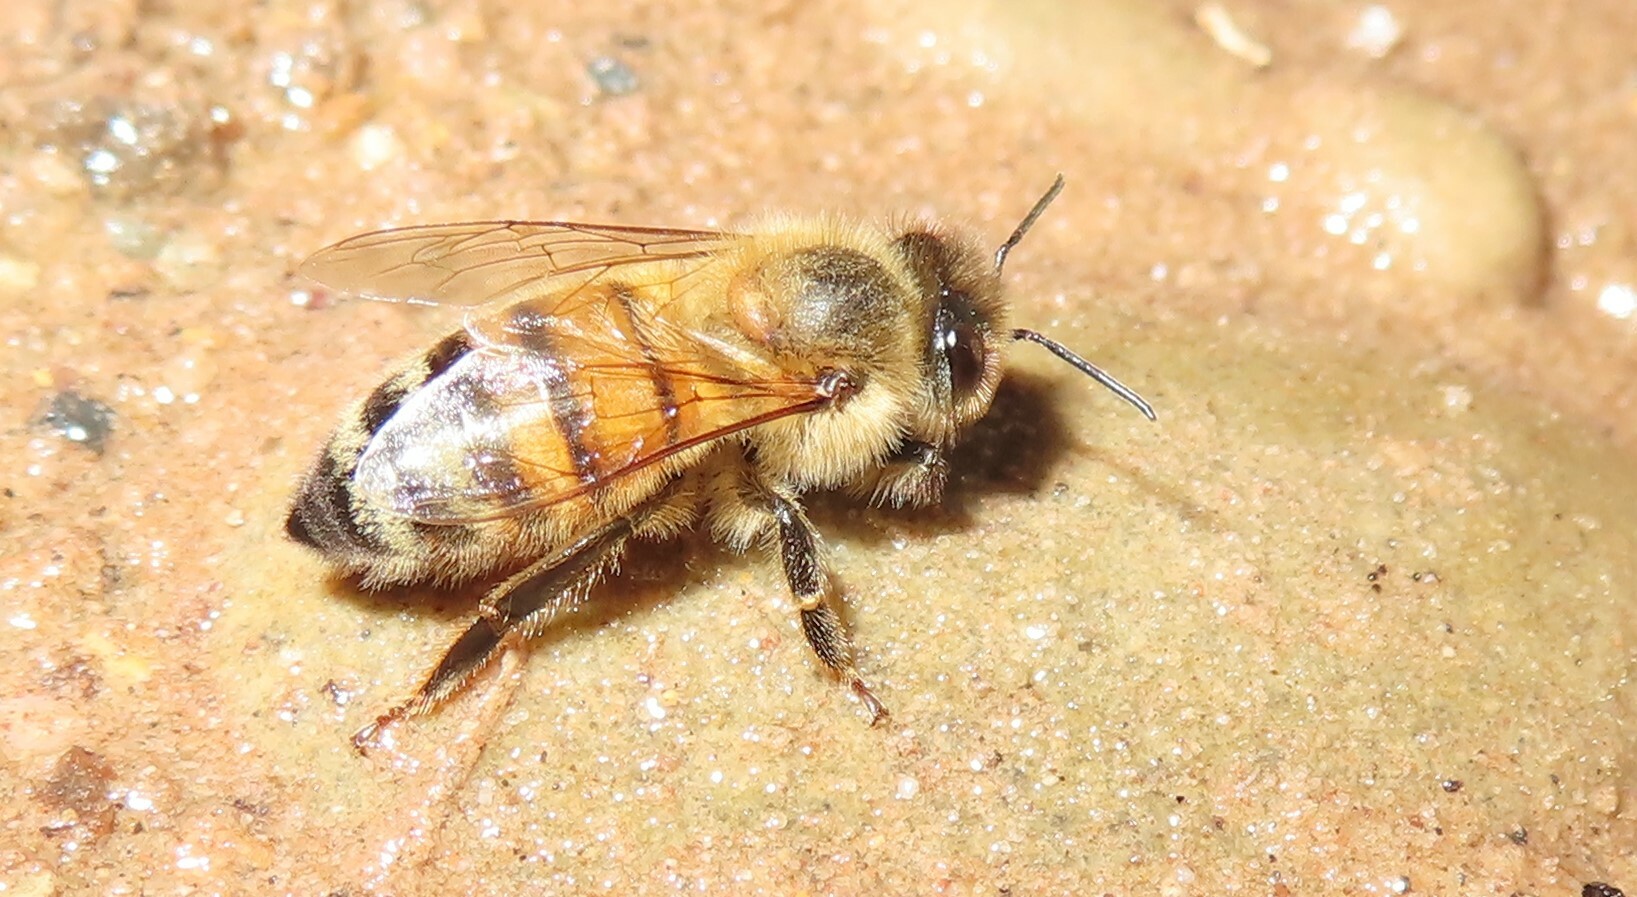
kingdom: Animalia
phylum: Arthropoda
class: Insecta
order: Hymenoptera
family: Apidae
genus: Apis
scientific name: Apis mellifera
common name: Honey bee
